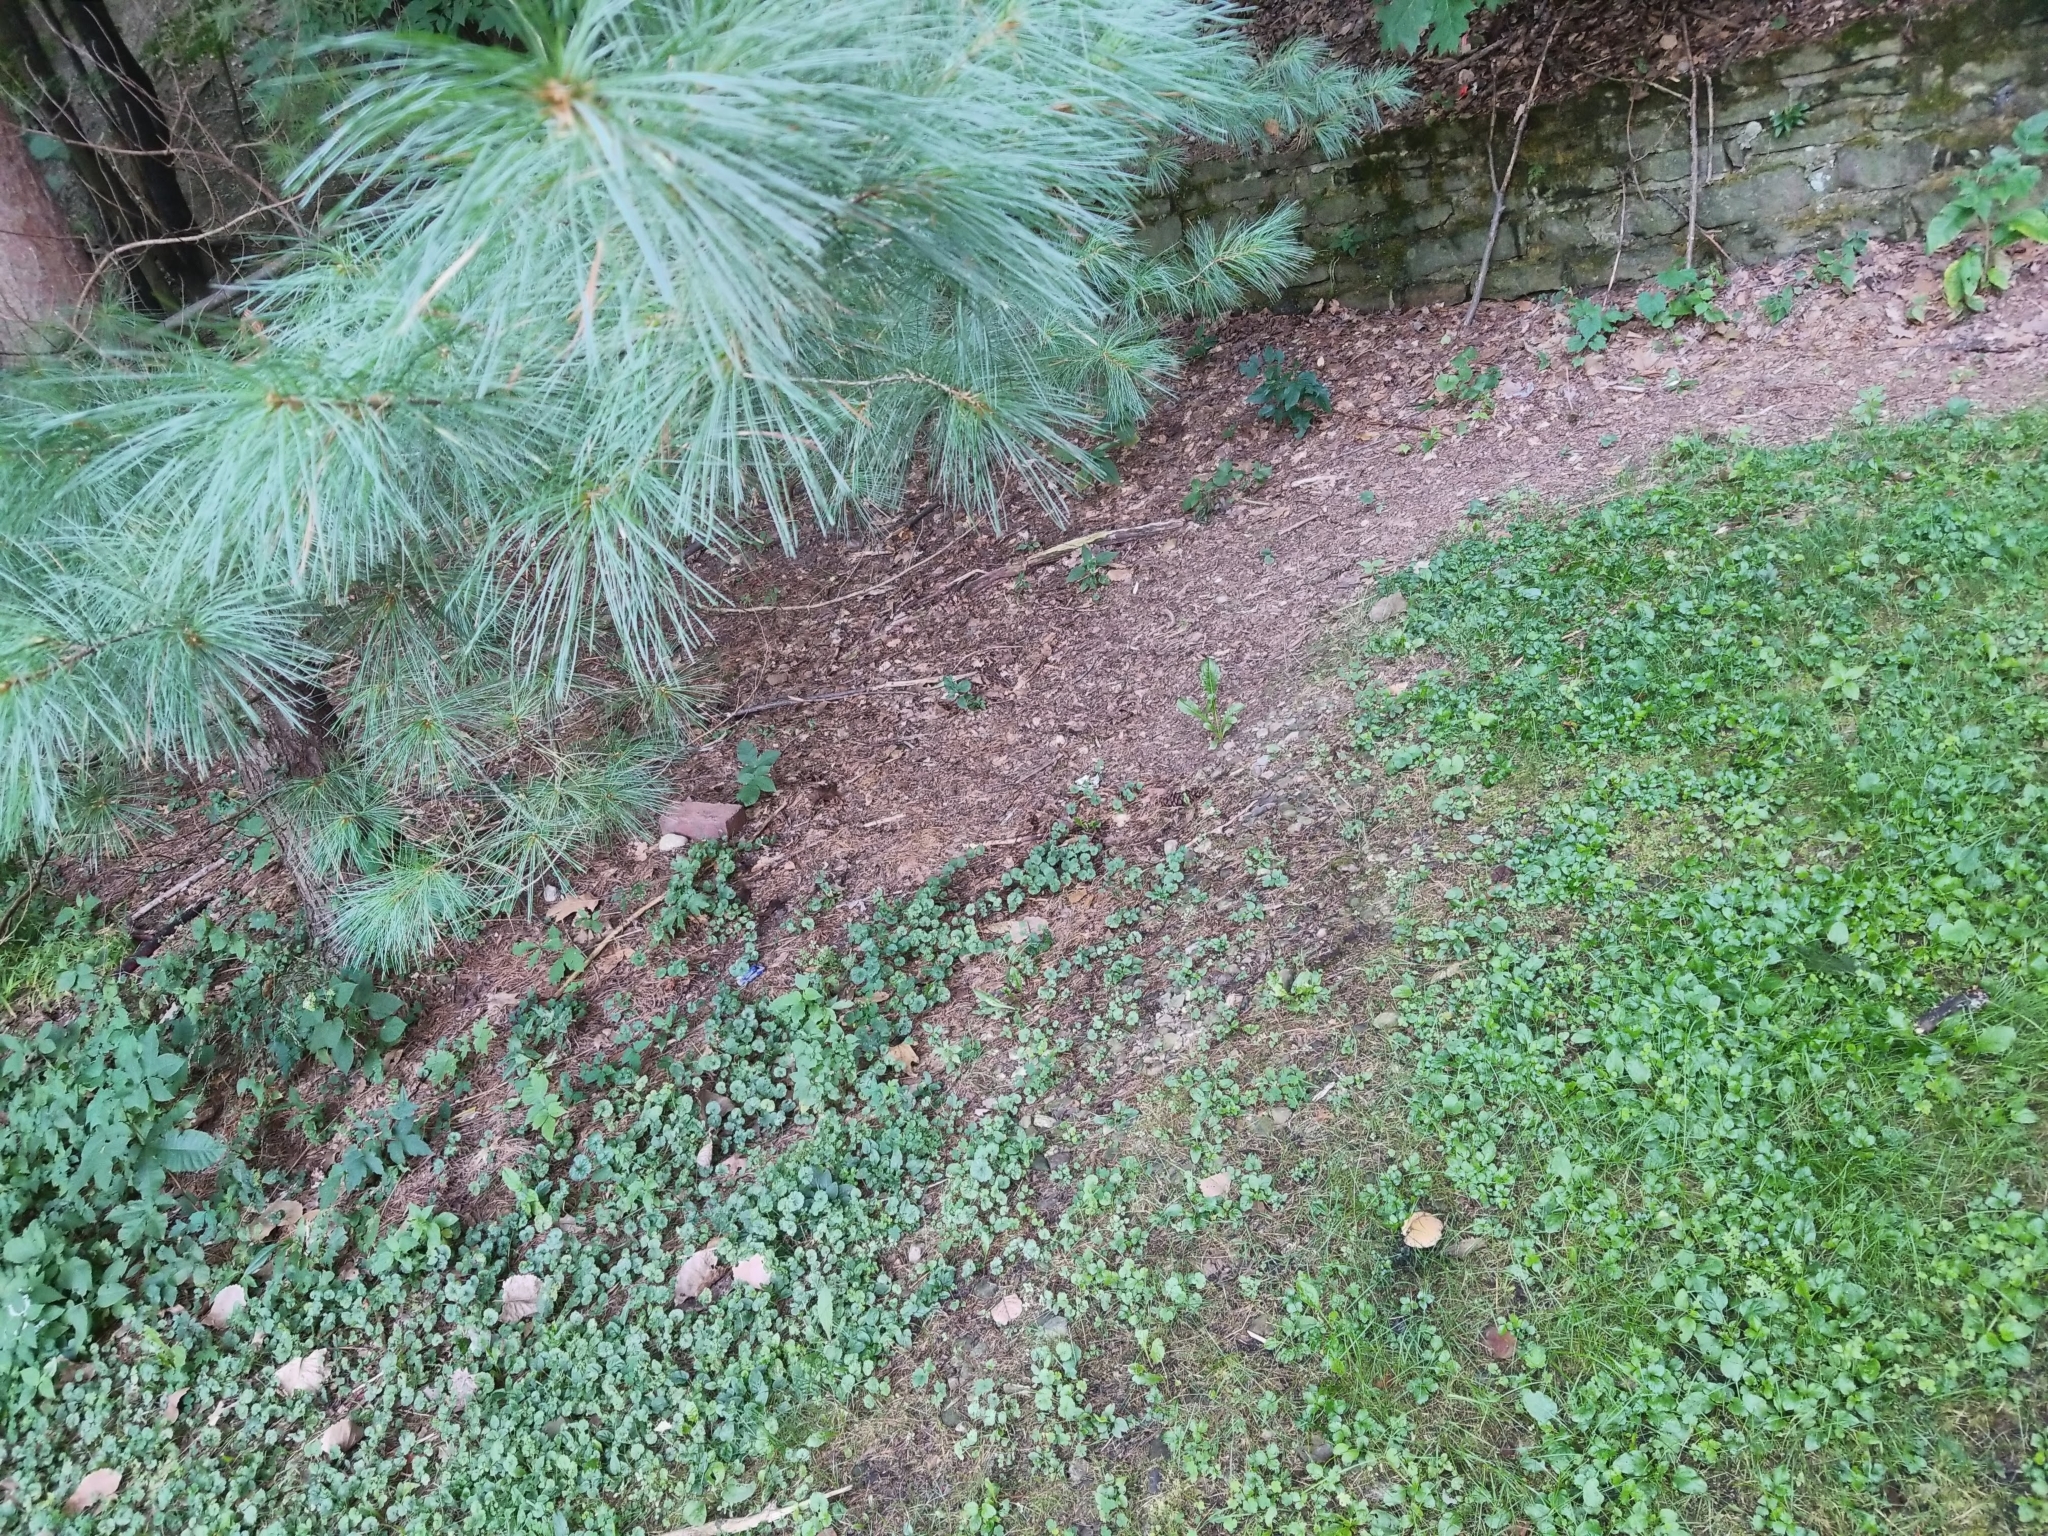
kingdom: Plantae
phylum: Tracheophyta
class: Pinopsida
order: Pinales
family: Pinaceae
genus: Pinus
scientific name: Pinus strobus
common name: Weymouth pine
